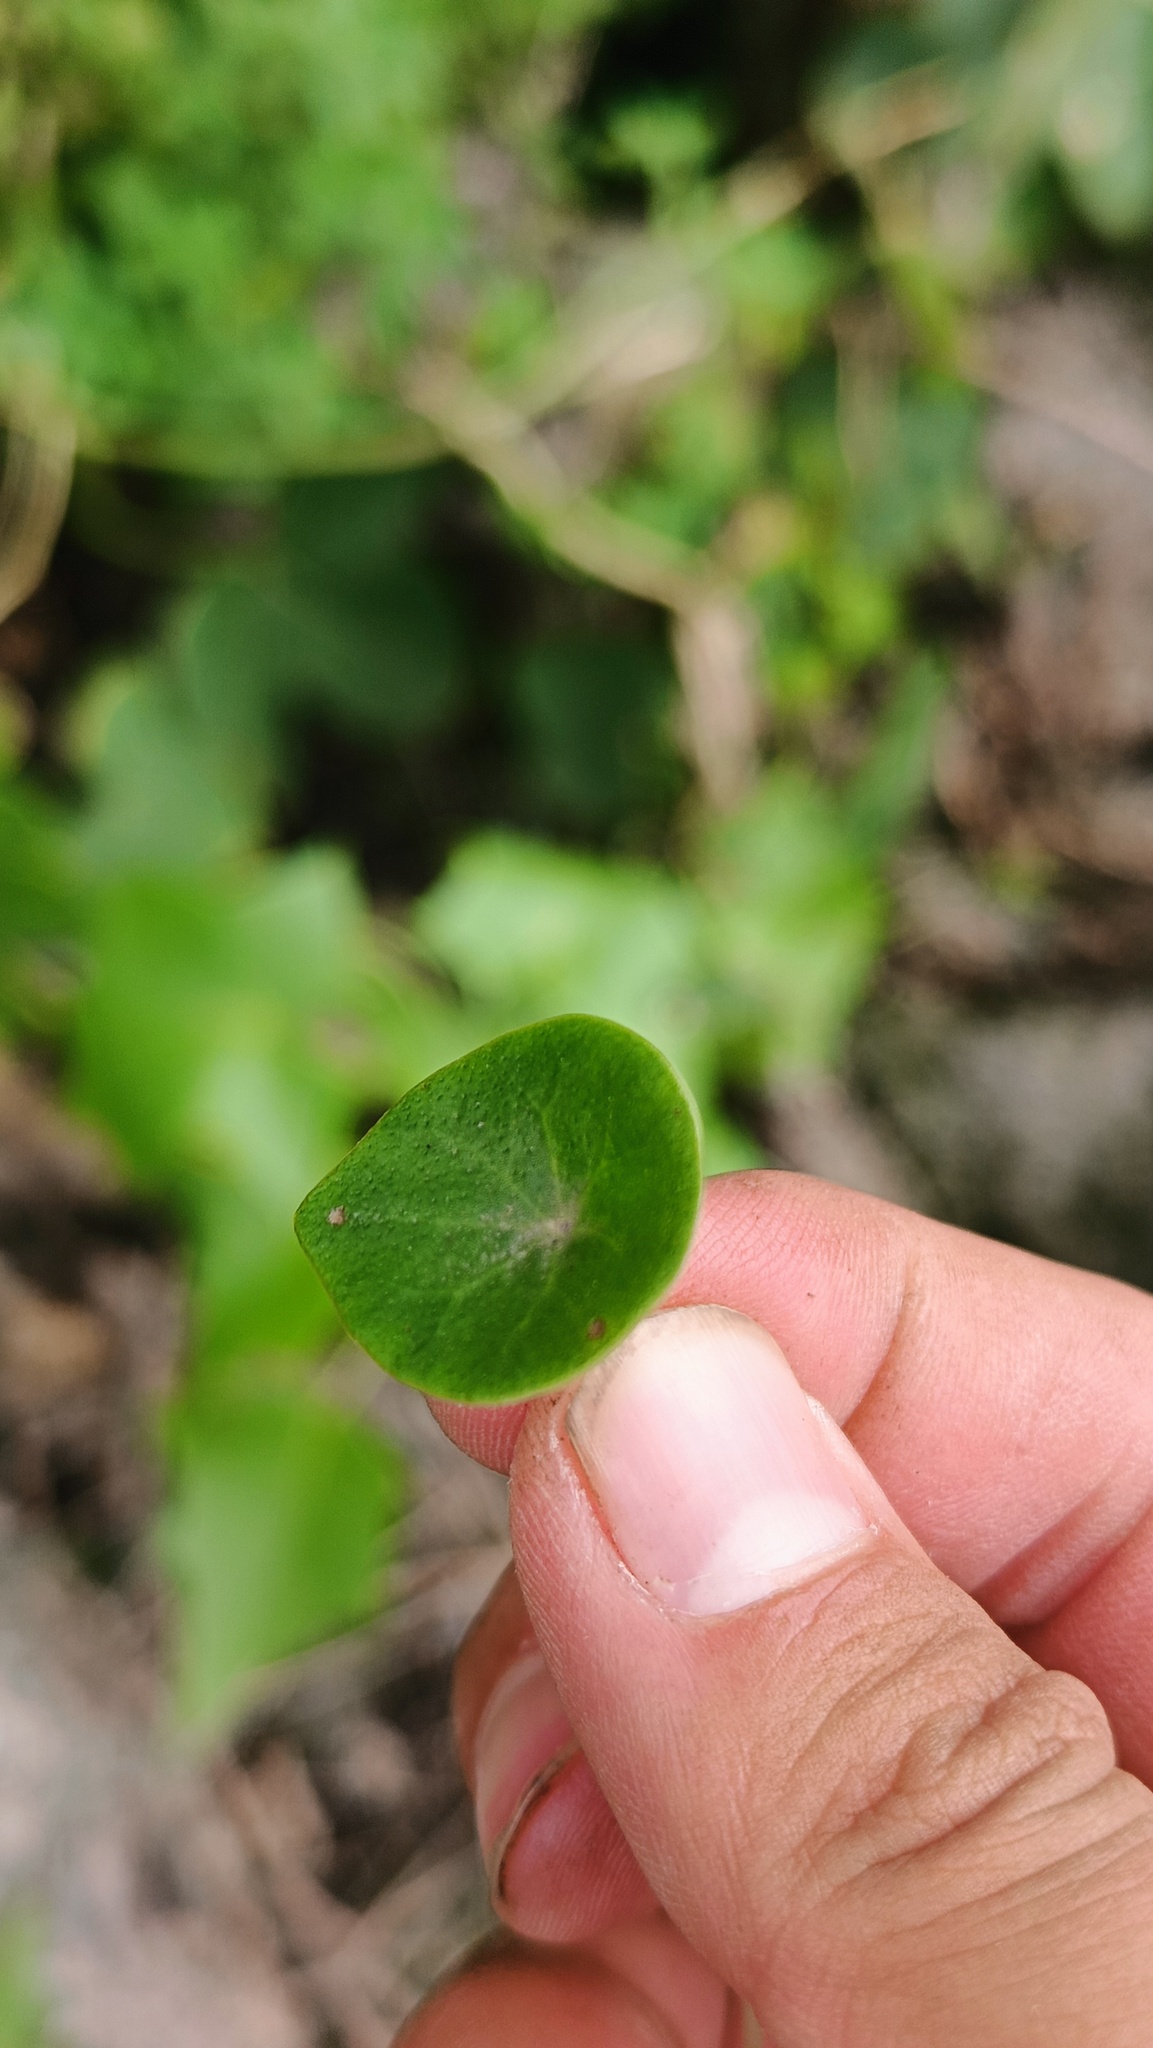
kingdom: Plantae
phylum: Tracheophyta
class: Magnoliopsida
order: Piperales
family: Piperaceae
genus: Peperomia
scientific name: Peperomia bracteata
